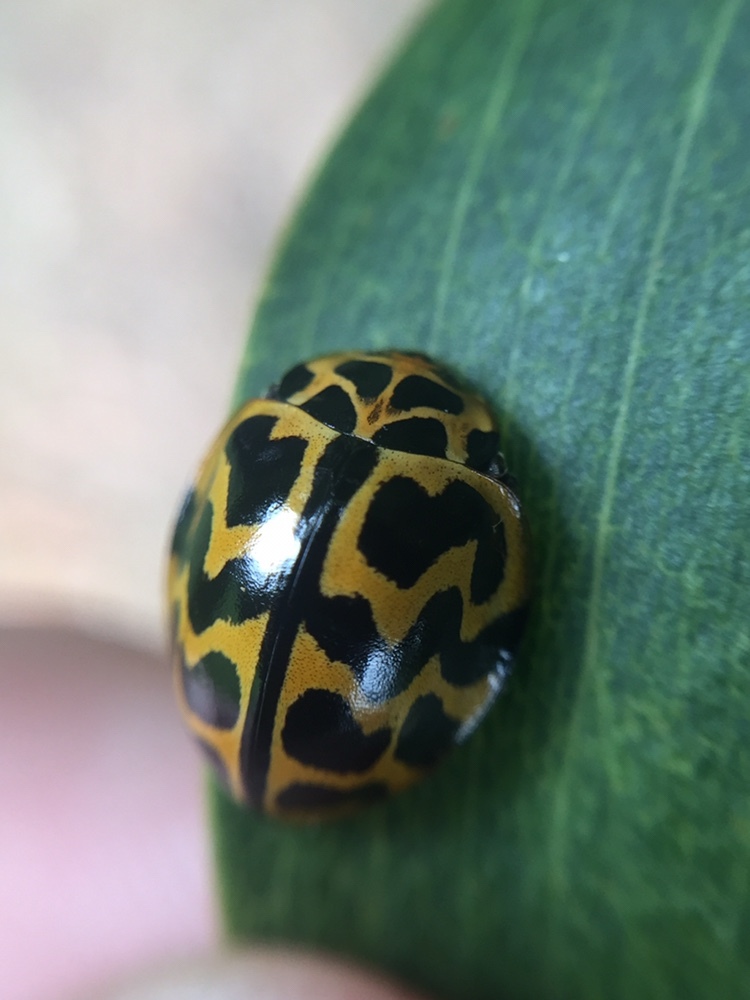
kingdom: Animalia
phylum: Arthropoda
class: Insecta
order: Coleoptera
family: Coccinellidae
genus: Cleobora
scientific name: Cleobora
